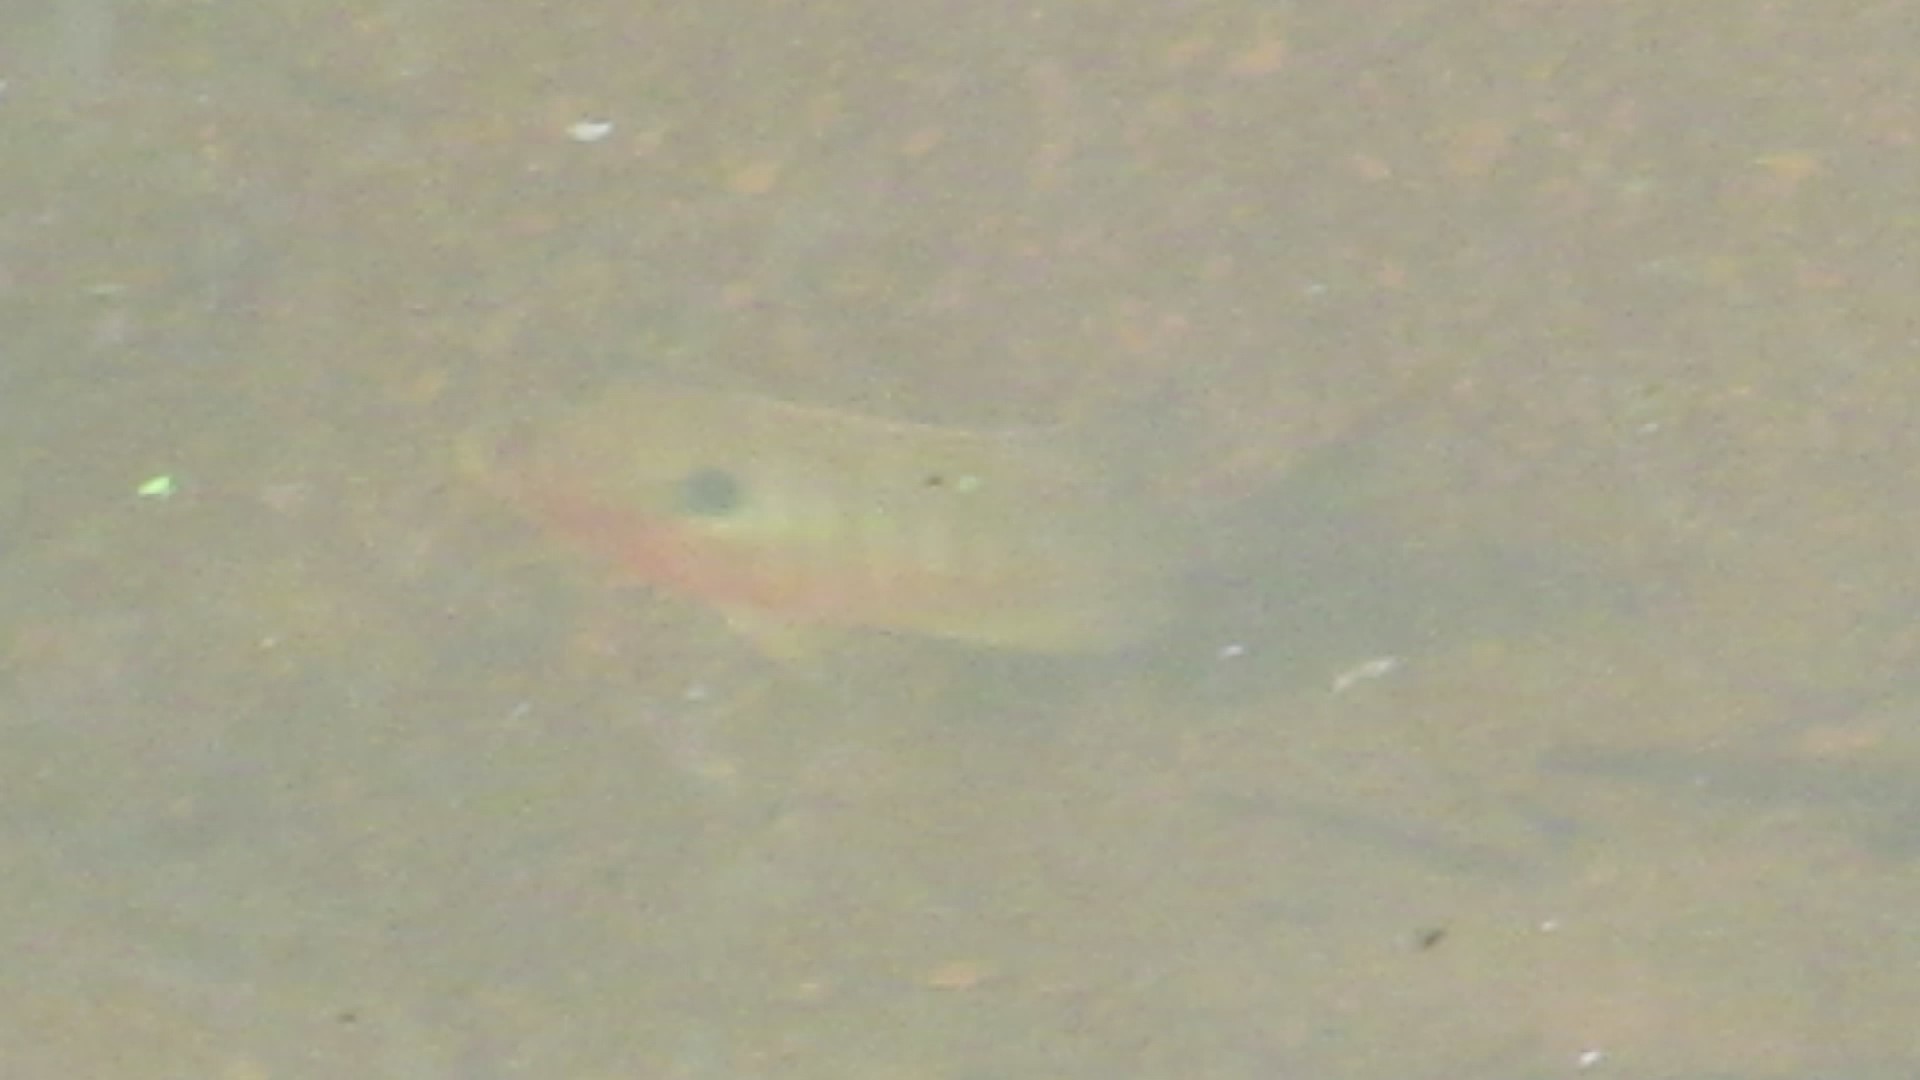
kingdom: Animalia
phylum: Chordata
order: Perciformes
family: Centrarchidae
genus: Lepomis
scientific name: Lepomis auritus
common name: Redbreast sunfish
